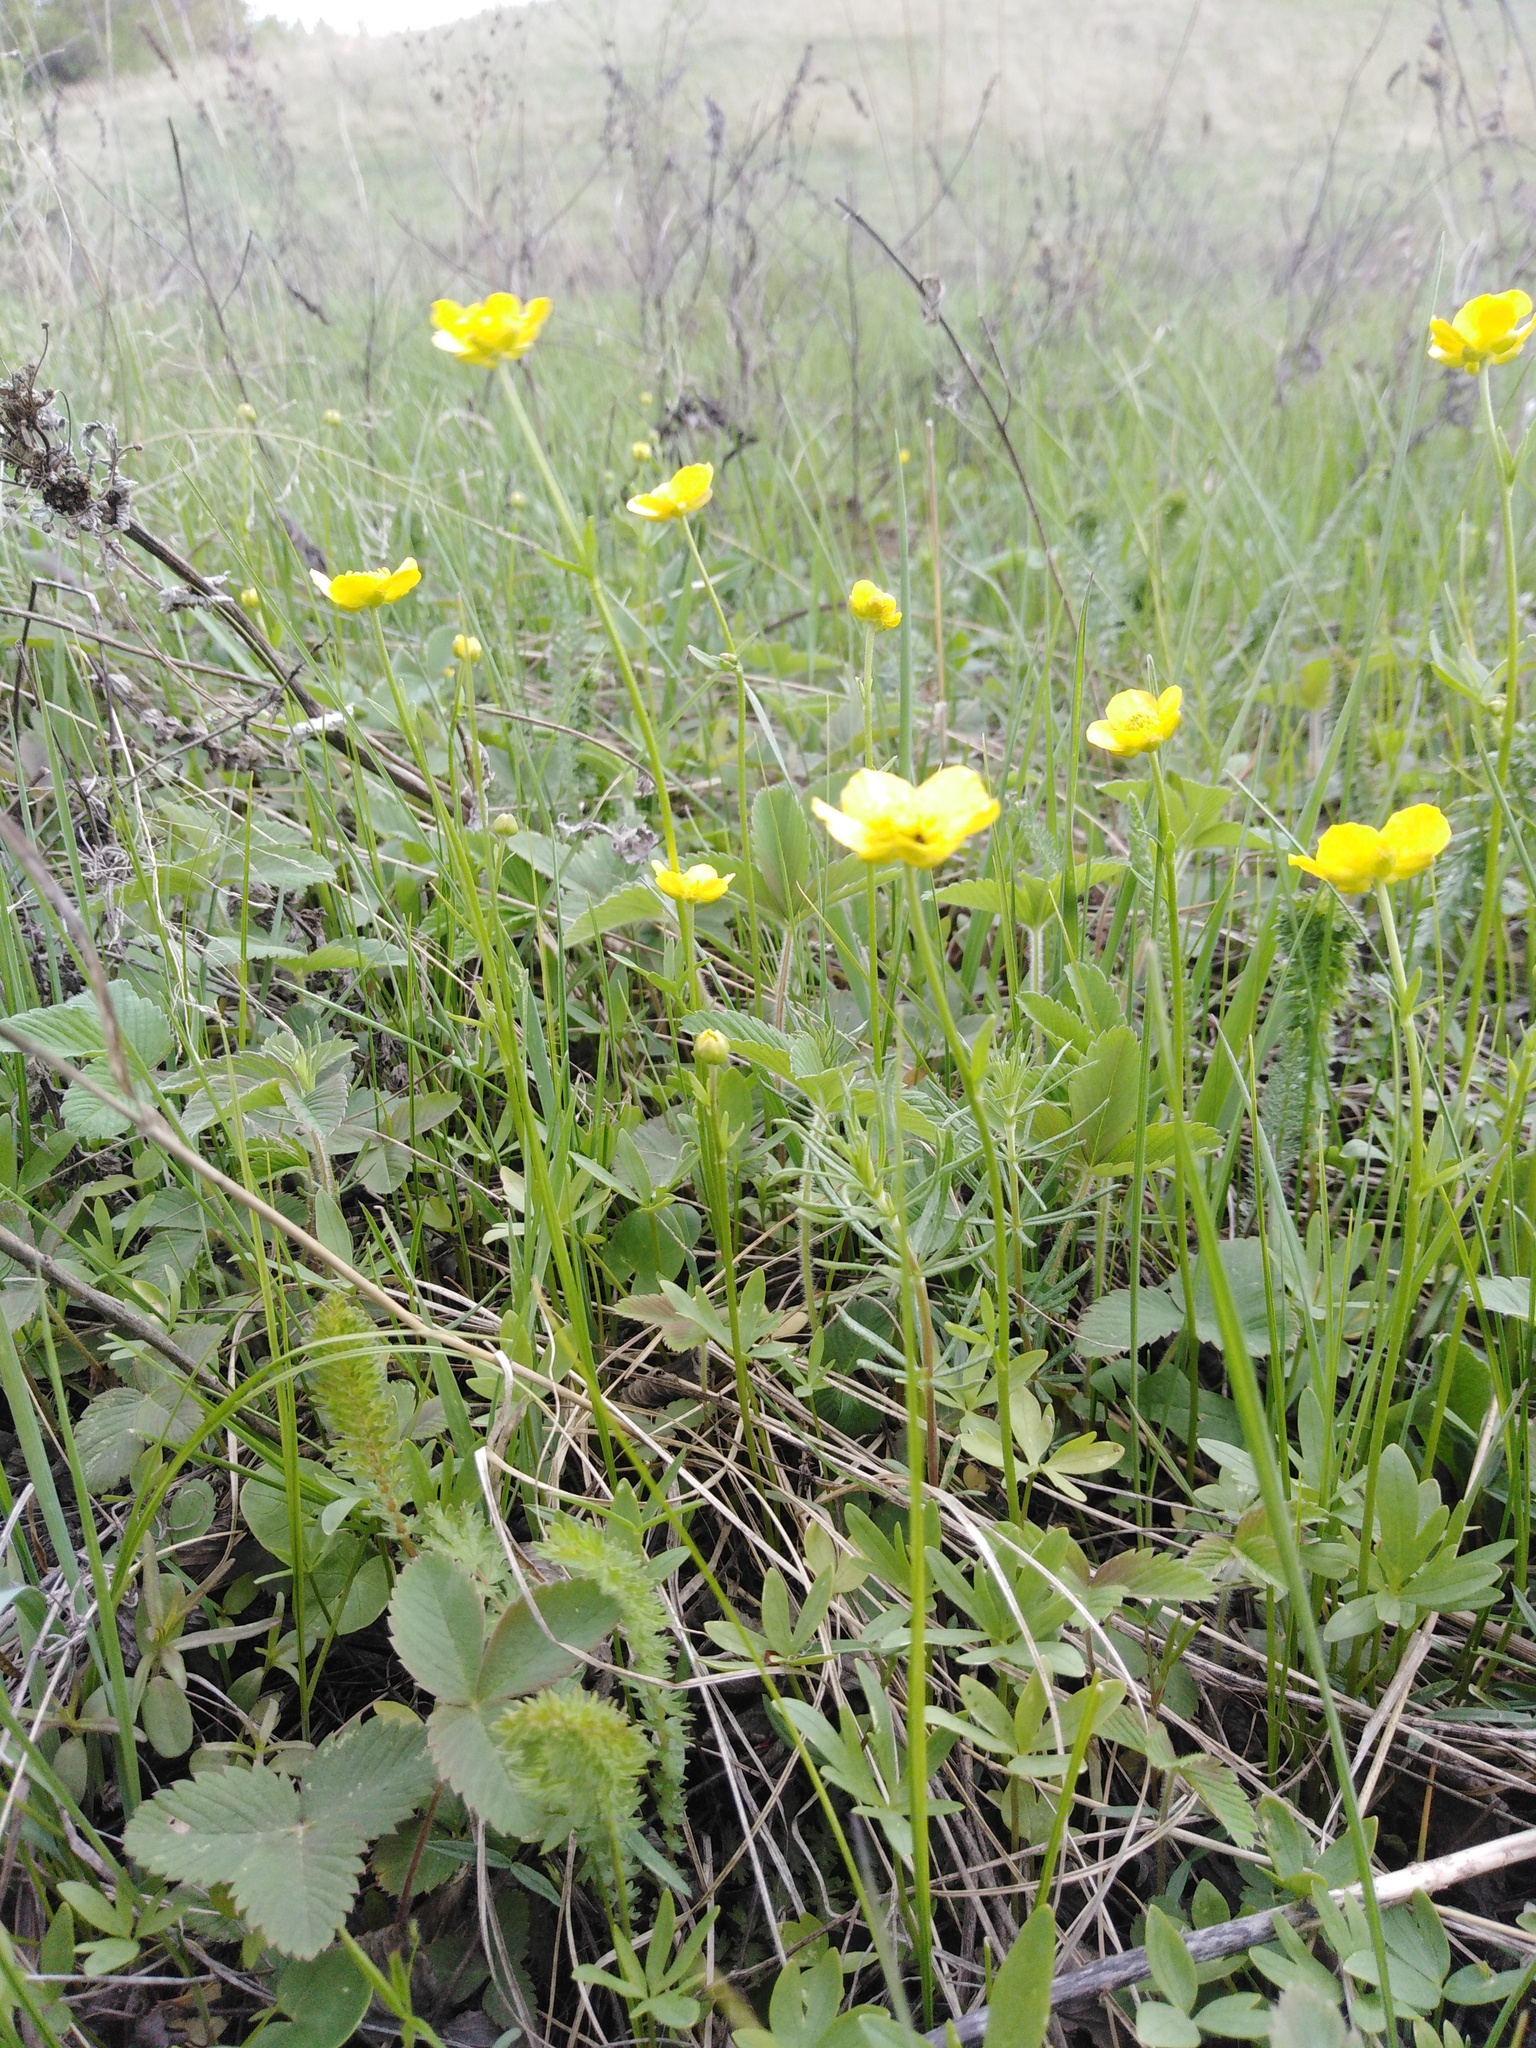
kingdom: Plantae
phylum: Tracheophyta
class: Magnoliopsida
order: Ranunculales
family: Ranunculaceae
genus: Ranunculus
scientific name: Ranunculus pedatus
